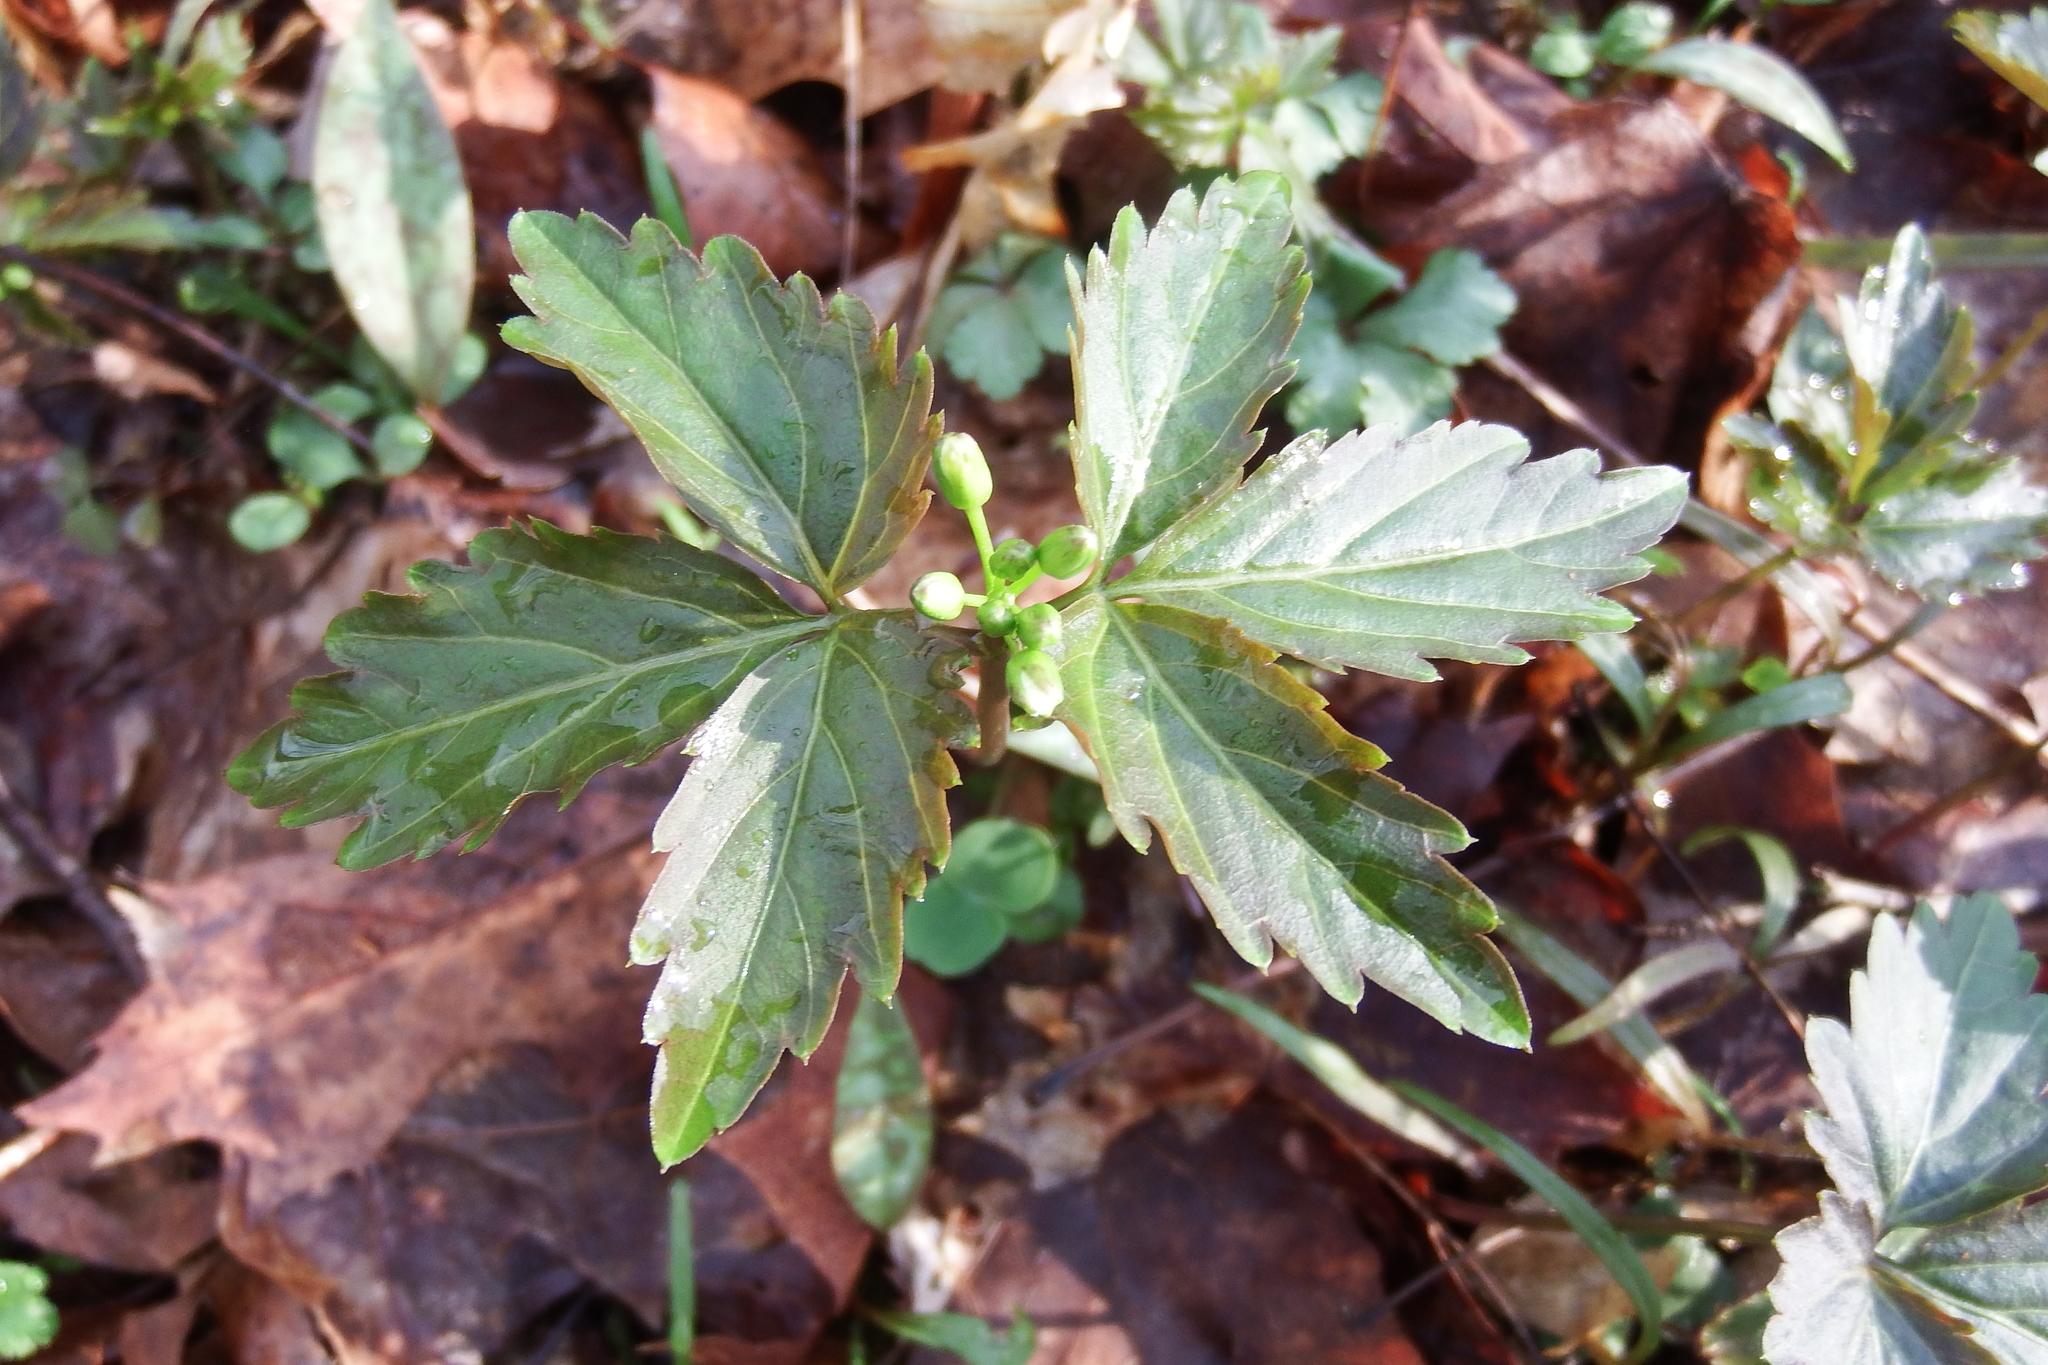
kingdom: Plantae
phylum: Tracheophyta
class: Magnoliopsida
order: Brassicales
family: Brassicaceae
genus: Cardamine
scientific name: Cardamine diphylla
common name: Broad-leaved toothwort
